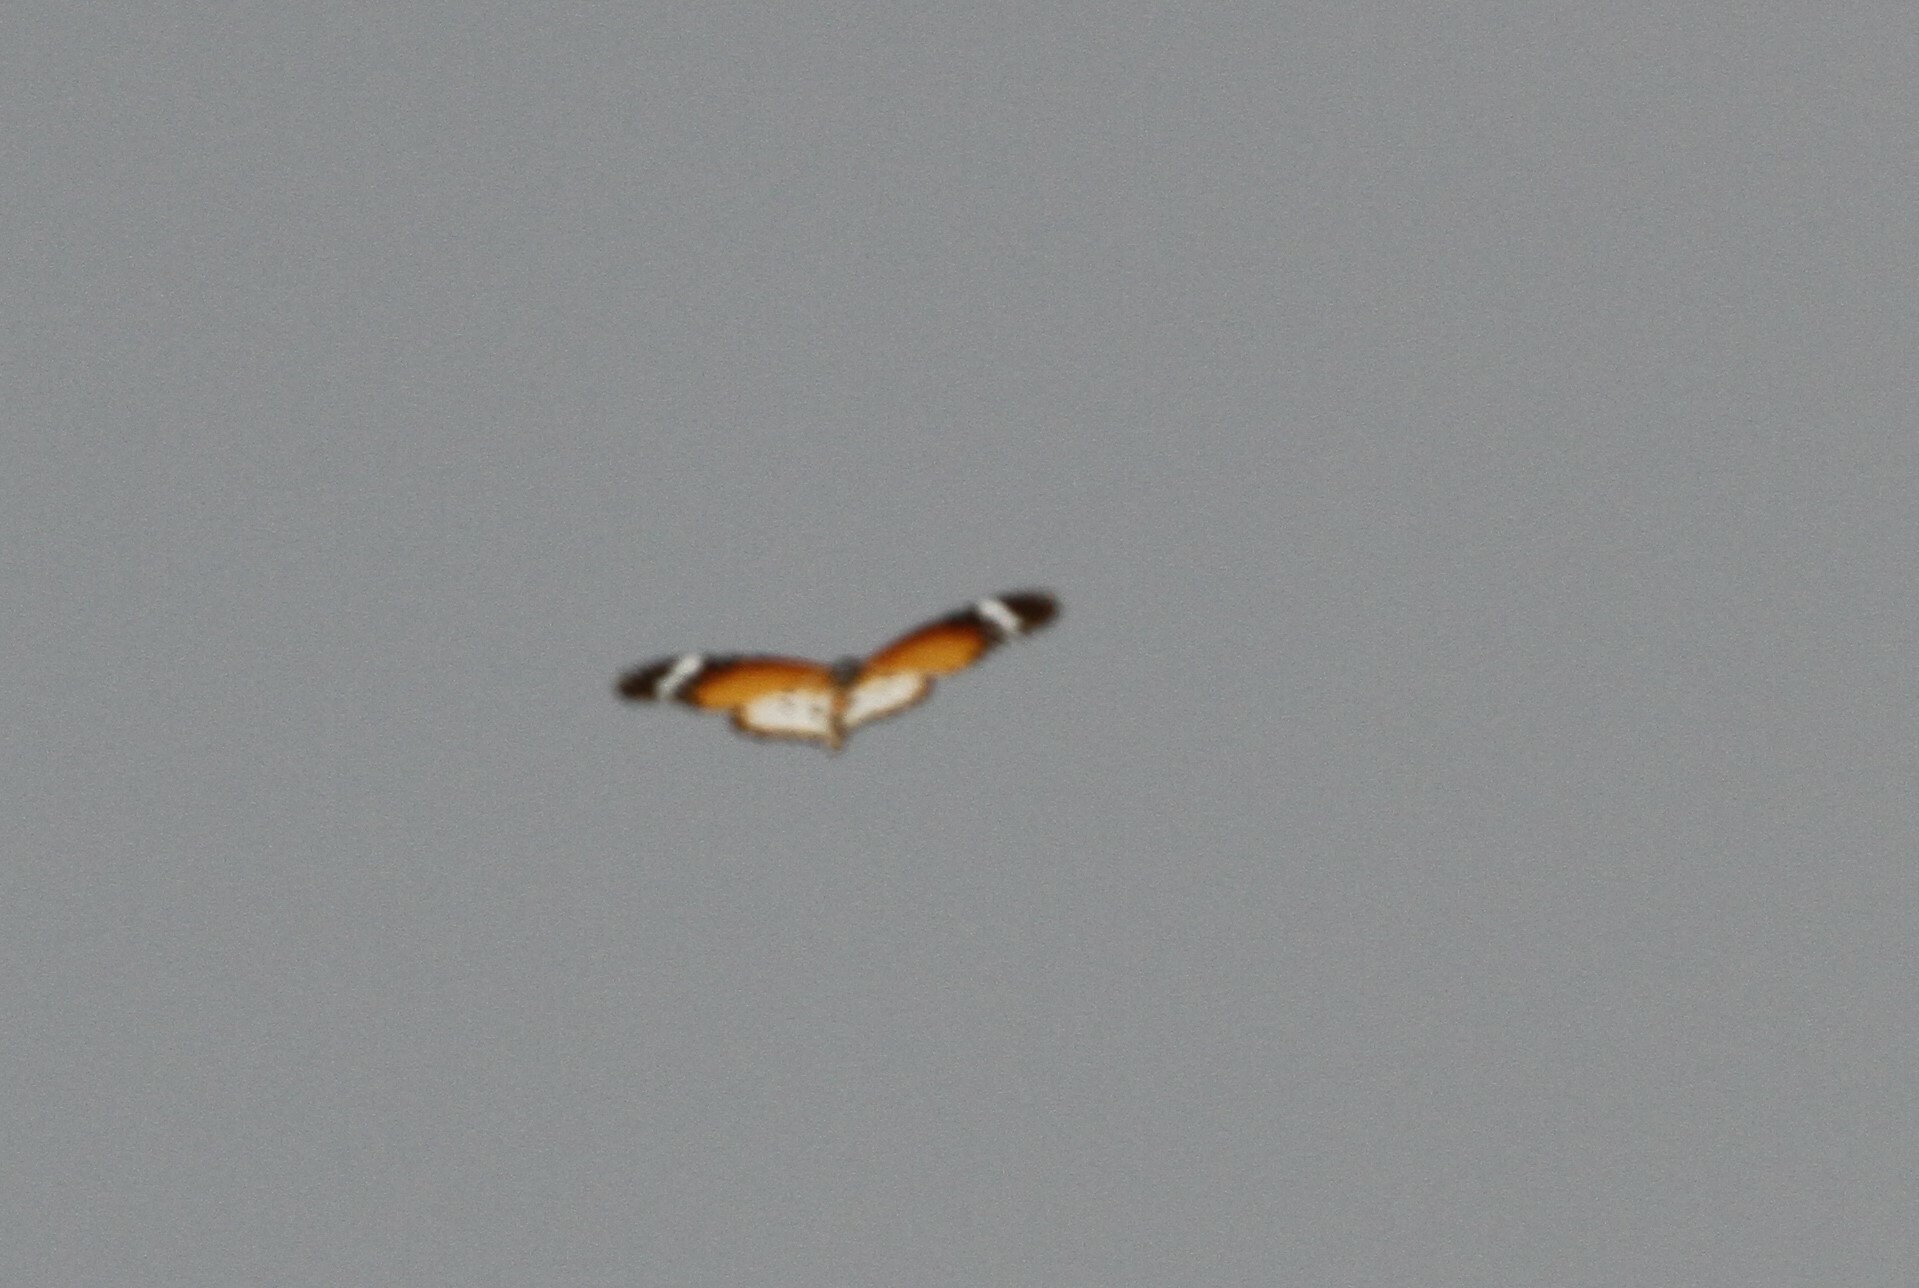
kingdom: Animalia
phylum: Arthropoda
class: Insecta
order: Lepidoptera
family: Nymphalidae
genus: Danaus
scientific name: Danaus chrysippus
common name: Plain tiger
